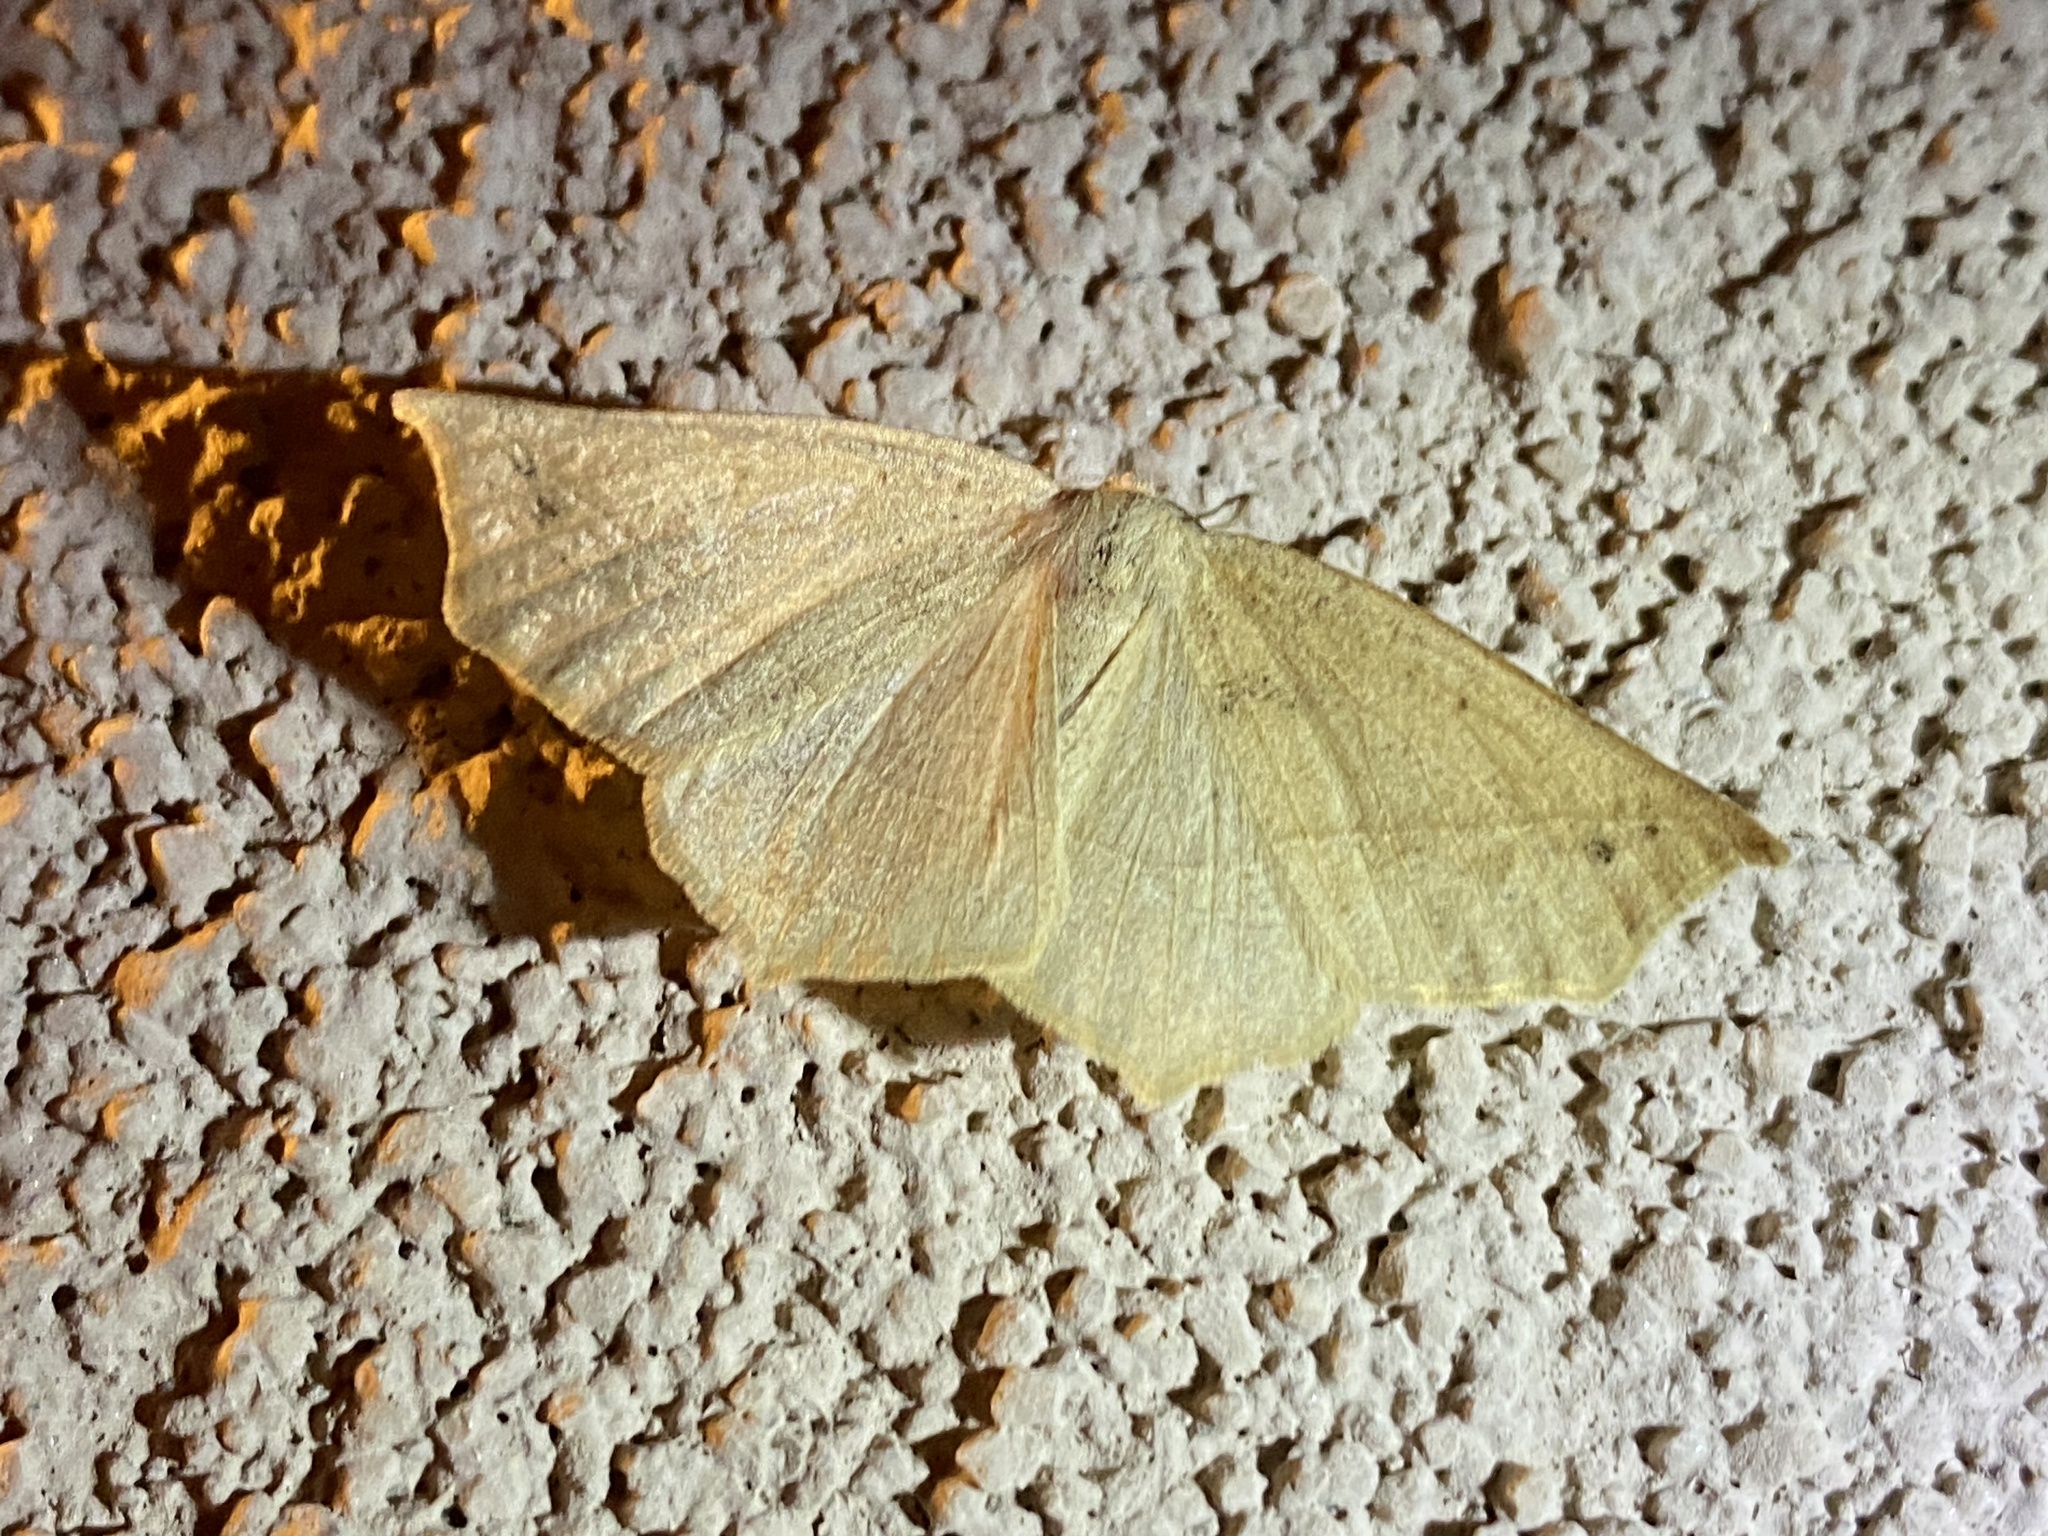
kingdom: Animalia
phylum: Arthropoda
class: Insecta
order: Lepidoptera
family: Geometridae
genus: Eusarca
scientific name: Eusarca falcata
